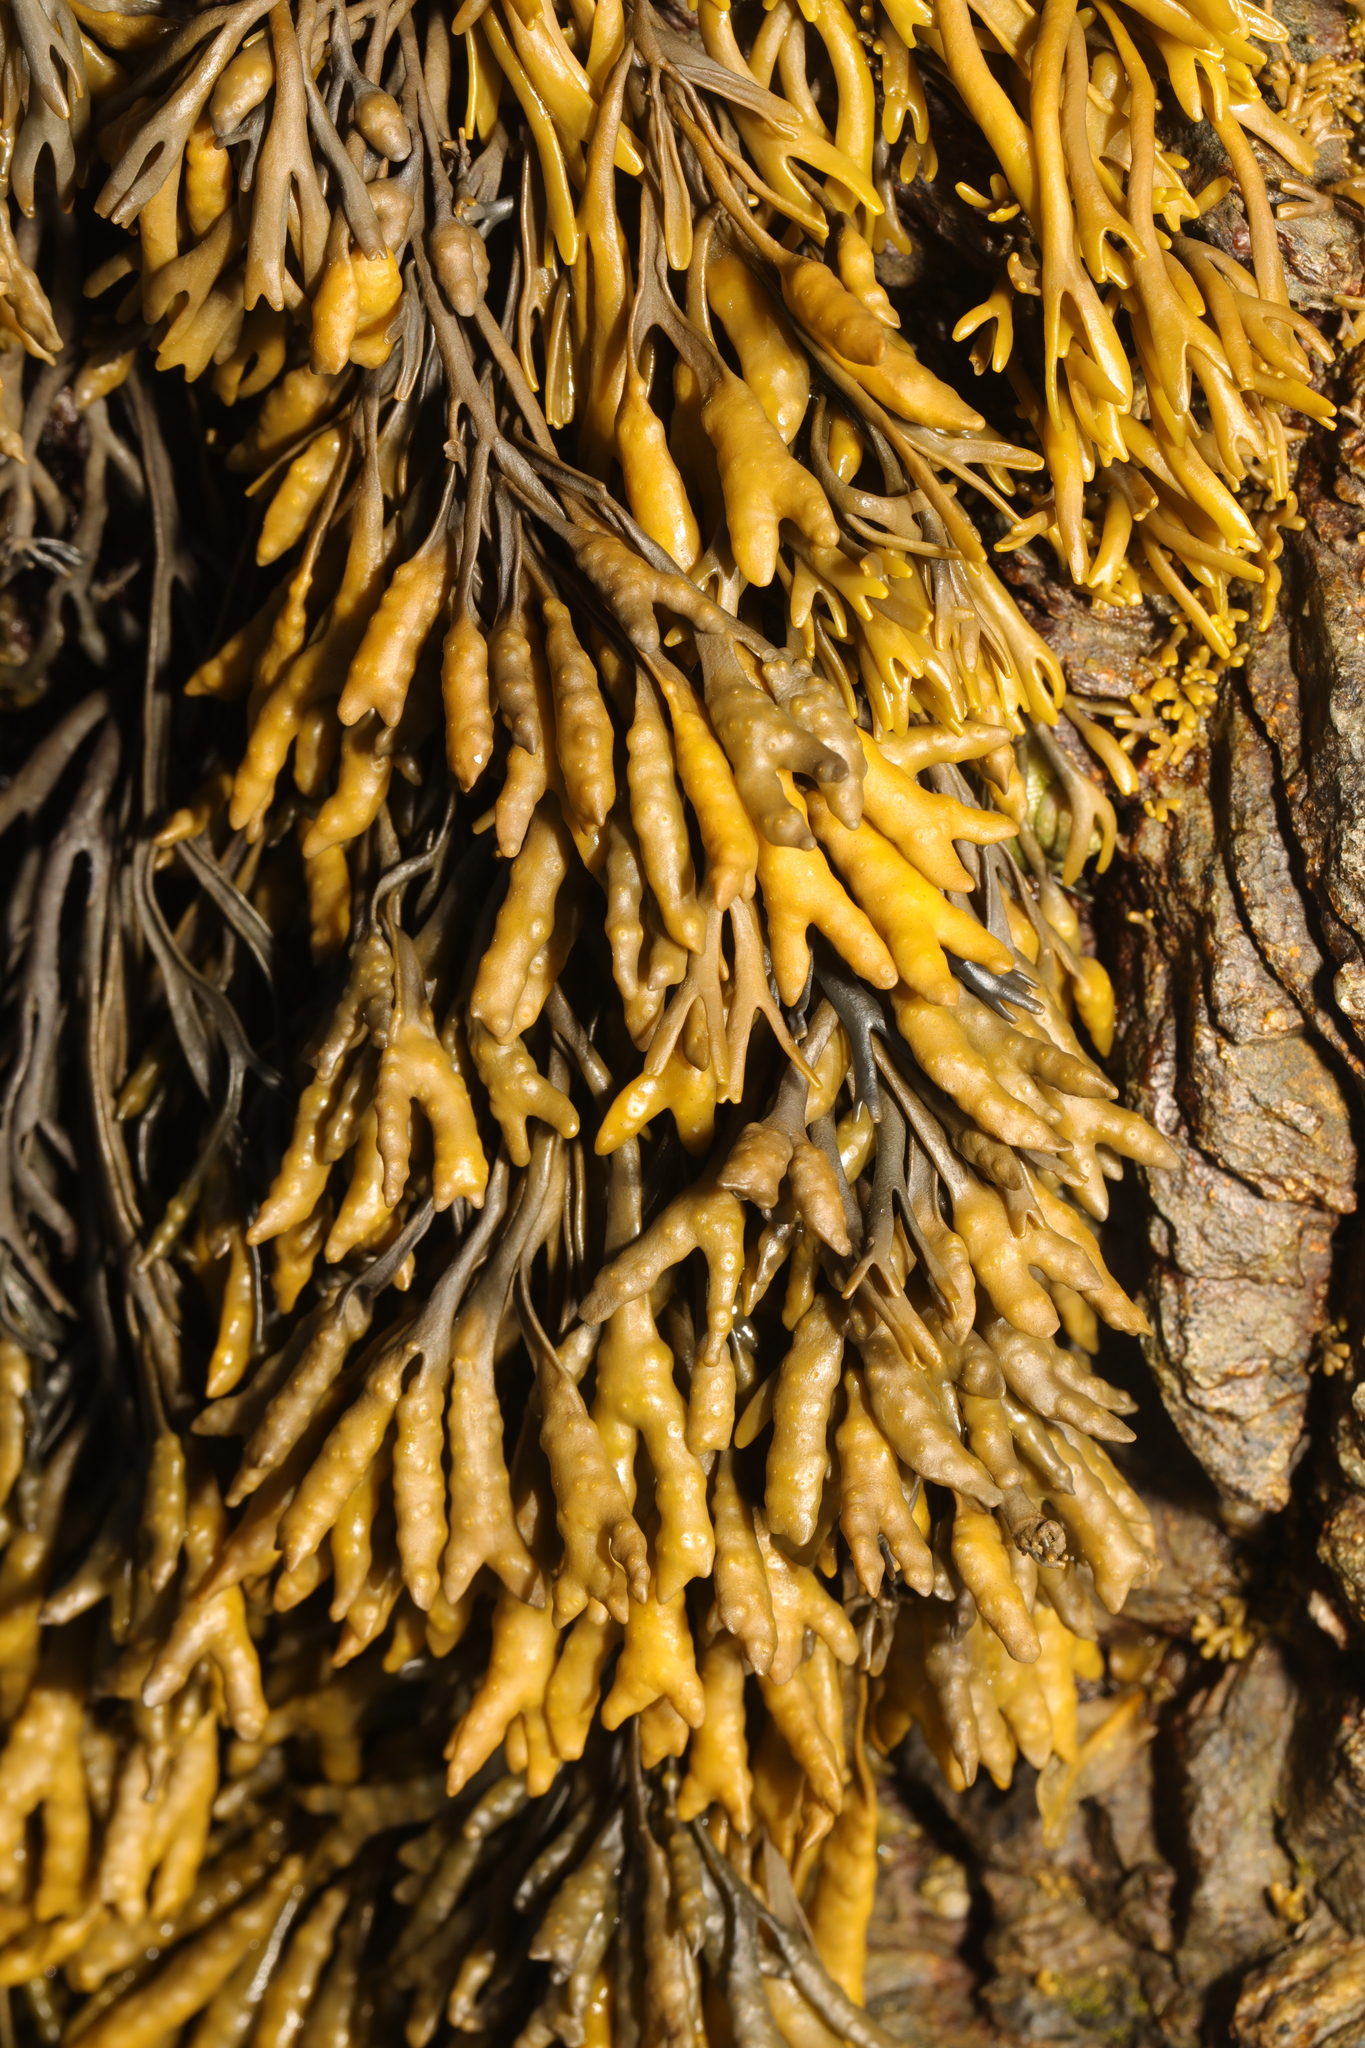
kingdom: Chromista
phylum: Ochrophyta
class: Phaeophyceae
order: Fucales
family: Fucaceae
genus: Pelvetia
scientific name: Pelvetia canaliculata
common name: Channelled wrack
